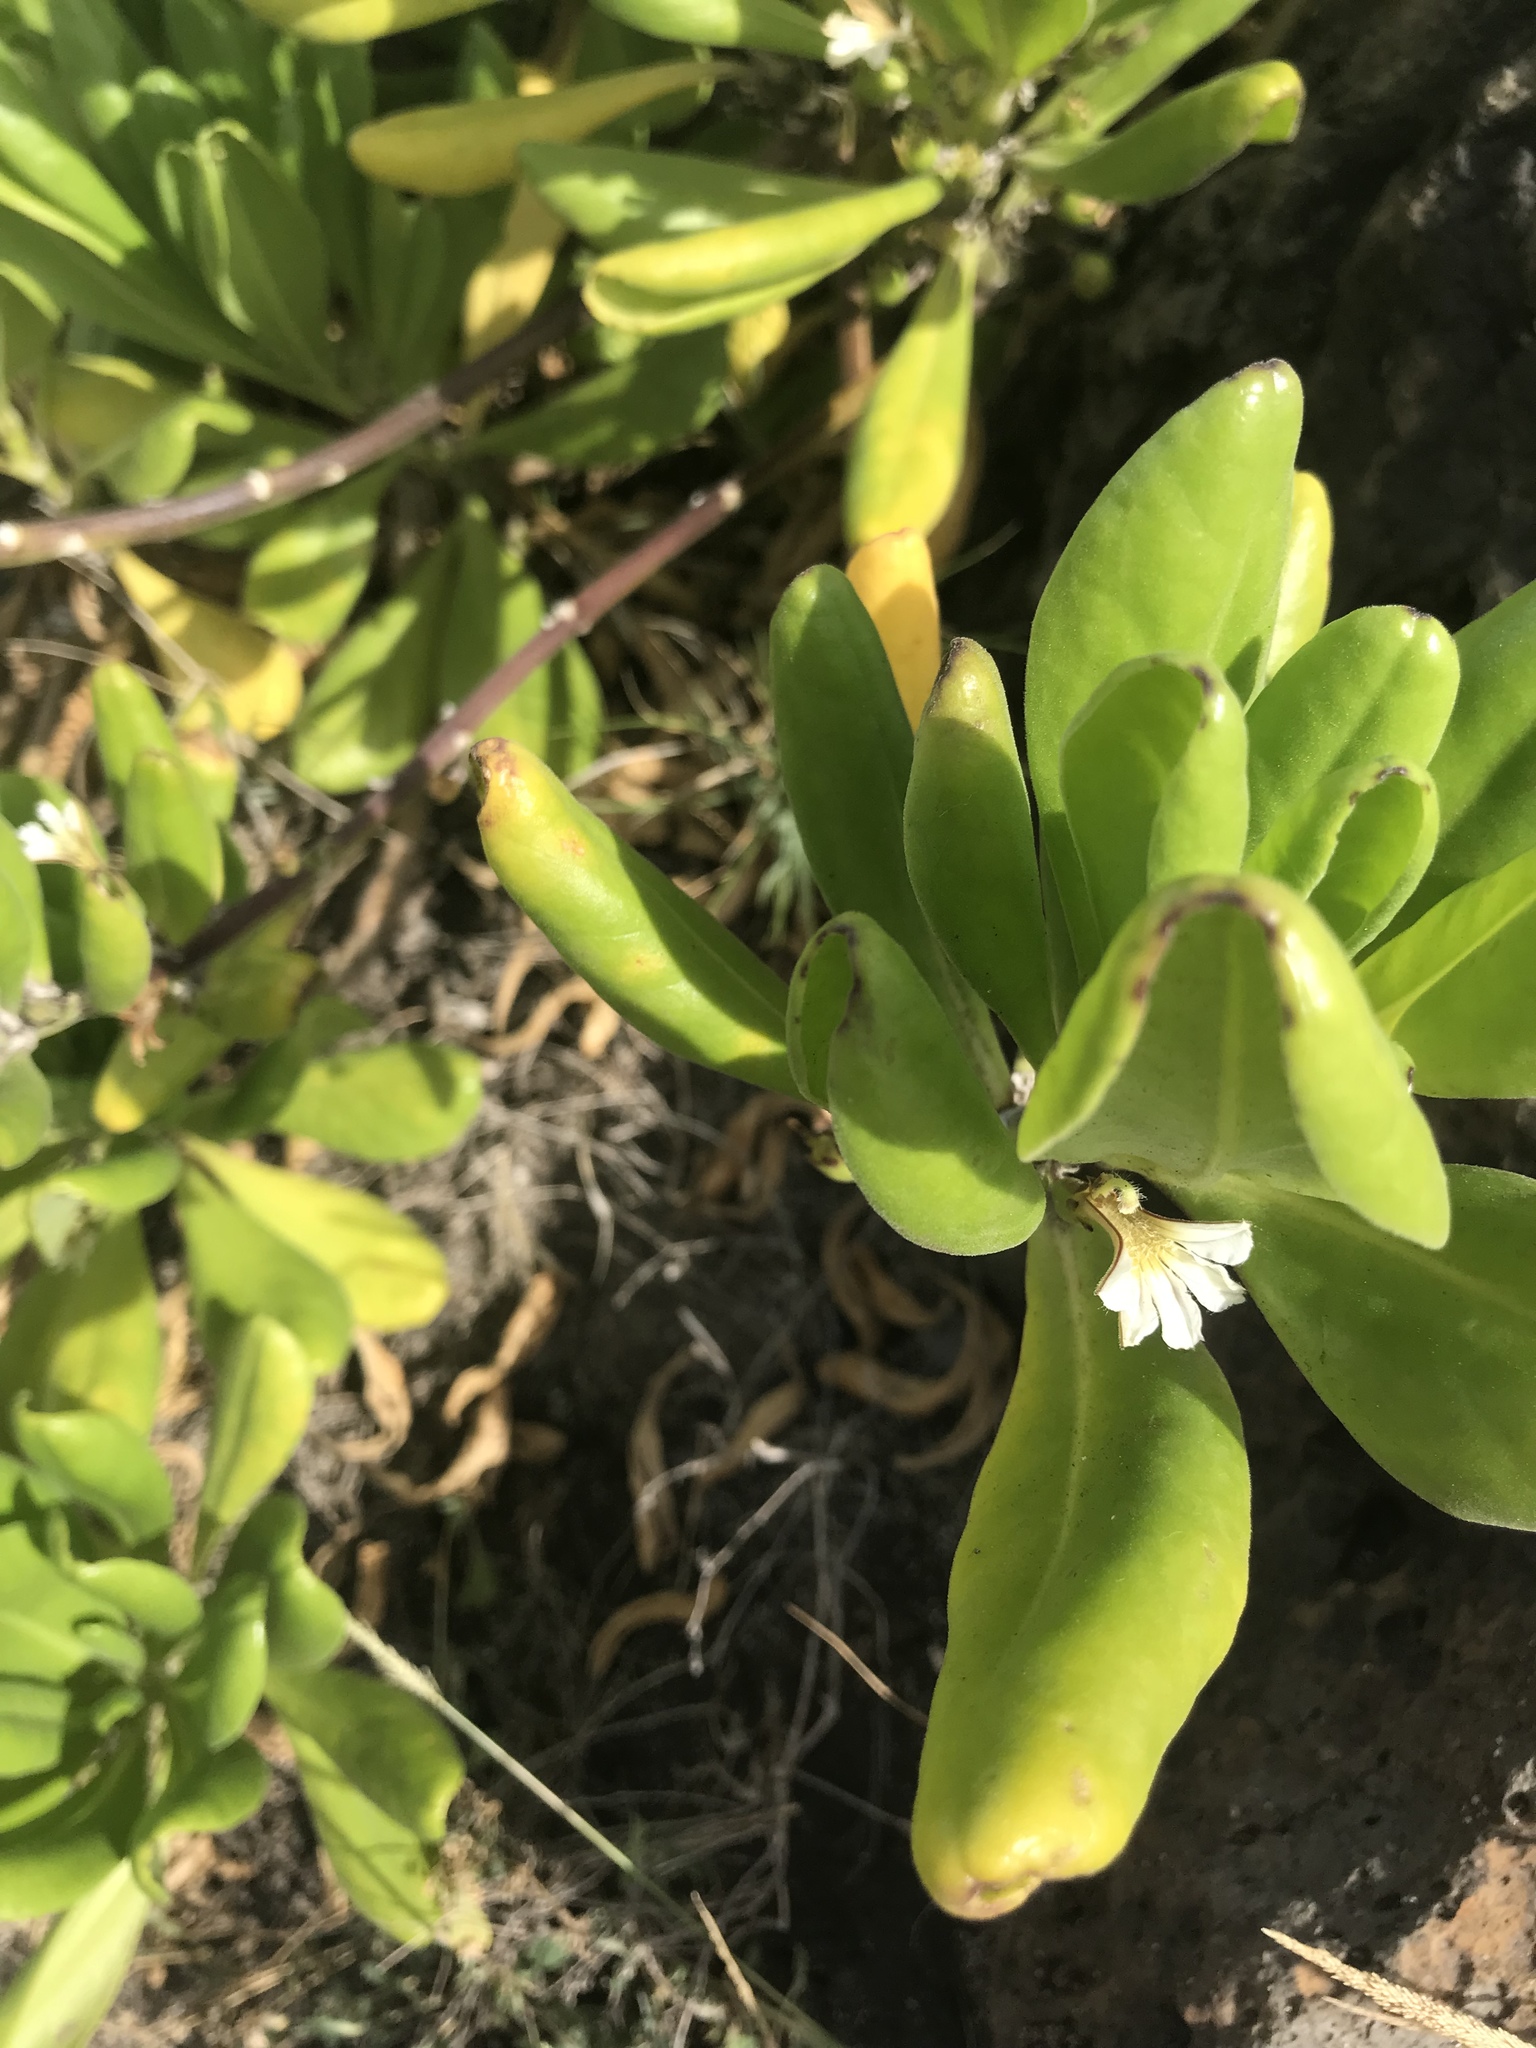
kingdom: Plantae
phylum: Tracheophyta
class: Magnoliopsida
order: Asterales
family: Goodeniaceae
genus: Scaevola
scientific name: Scaevola taccada
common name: Sea lettucetree
